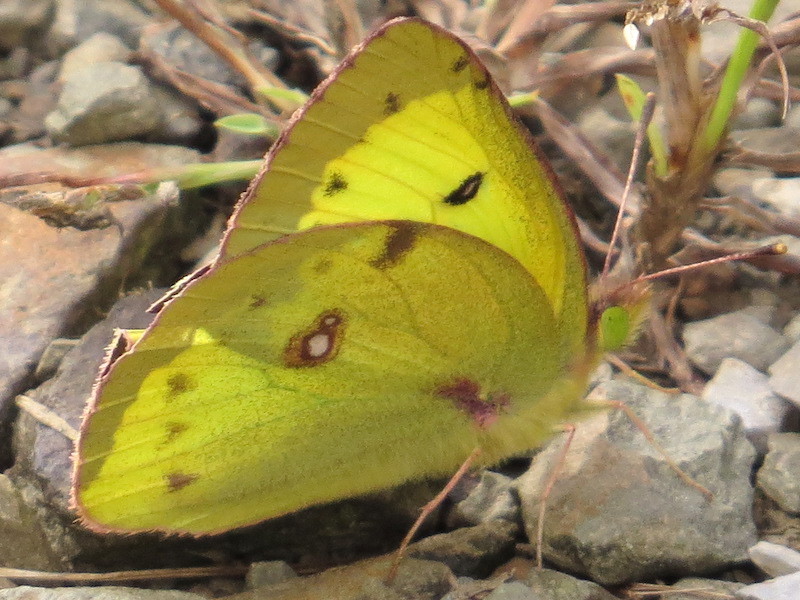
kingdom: Animalia
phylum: Arthropoda
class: Insecta
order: Lepidoptera
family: Pieridae
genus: Colias
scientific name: Colias philodice
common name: Clouded sulphur
